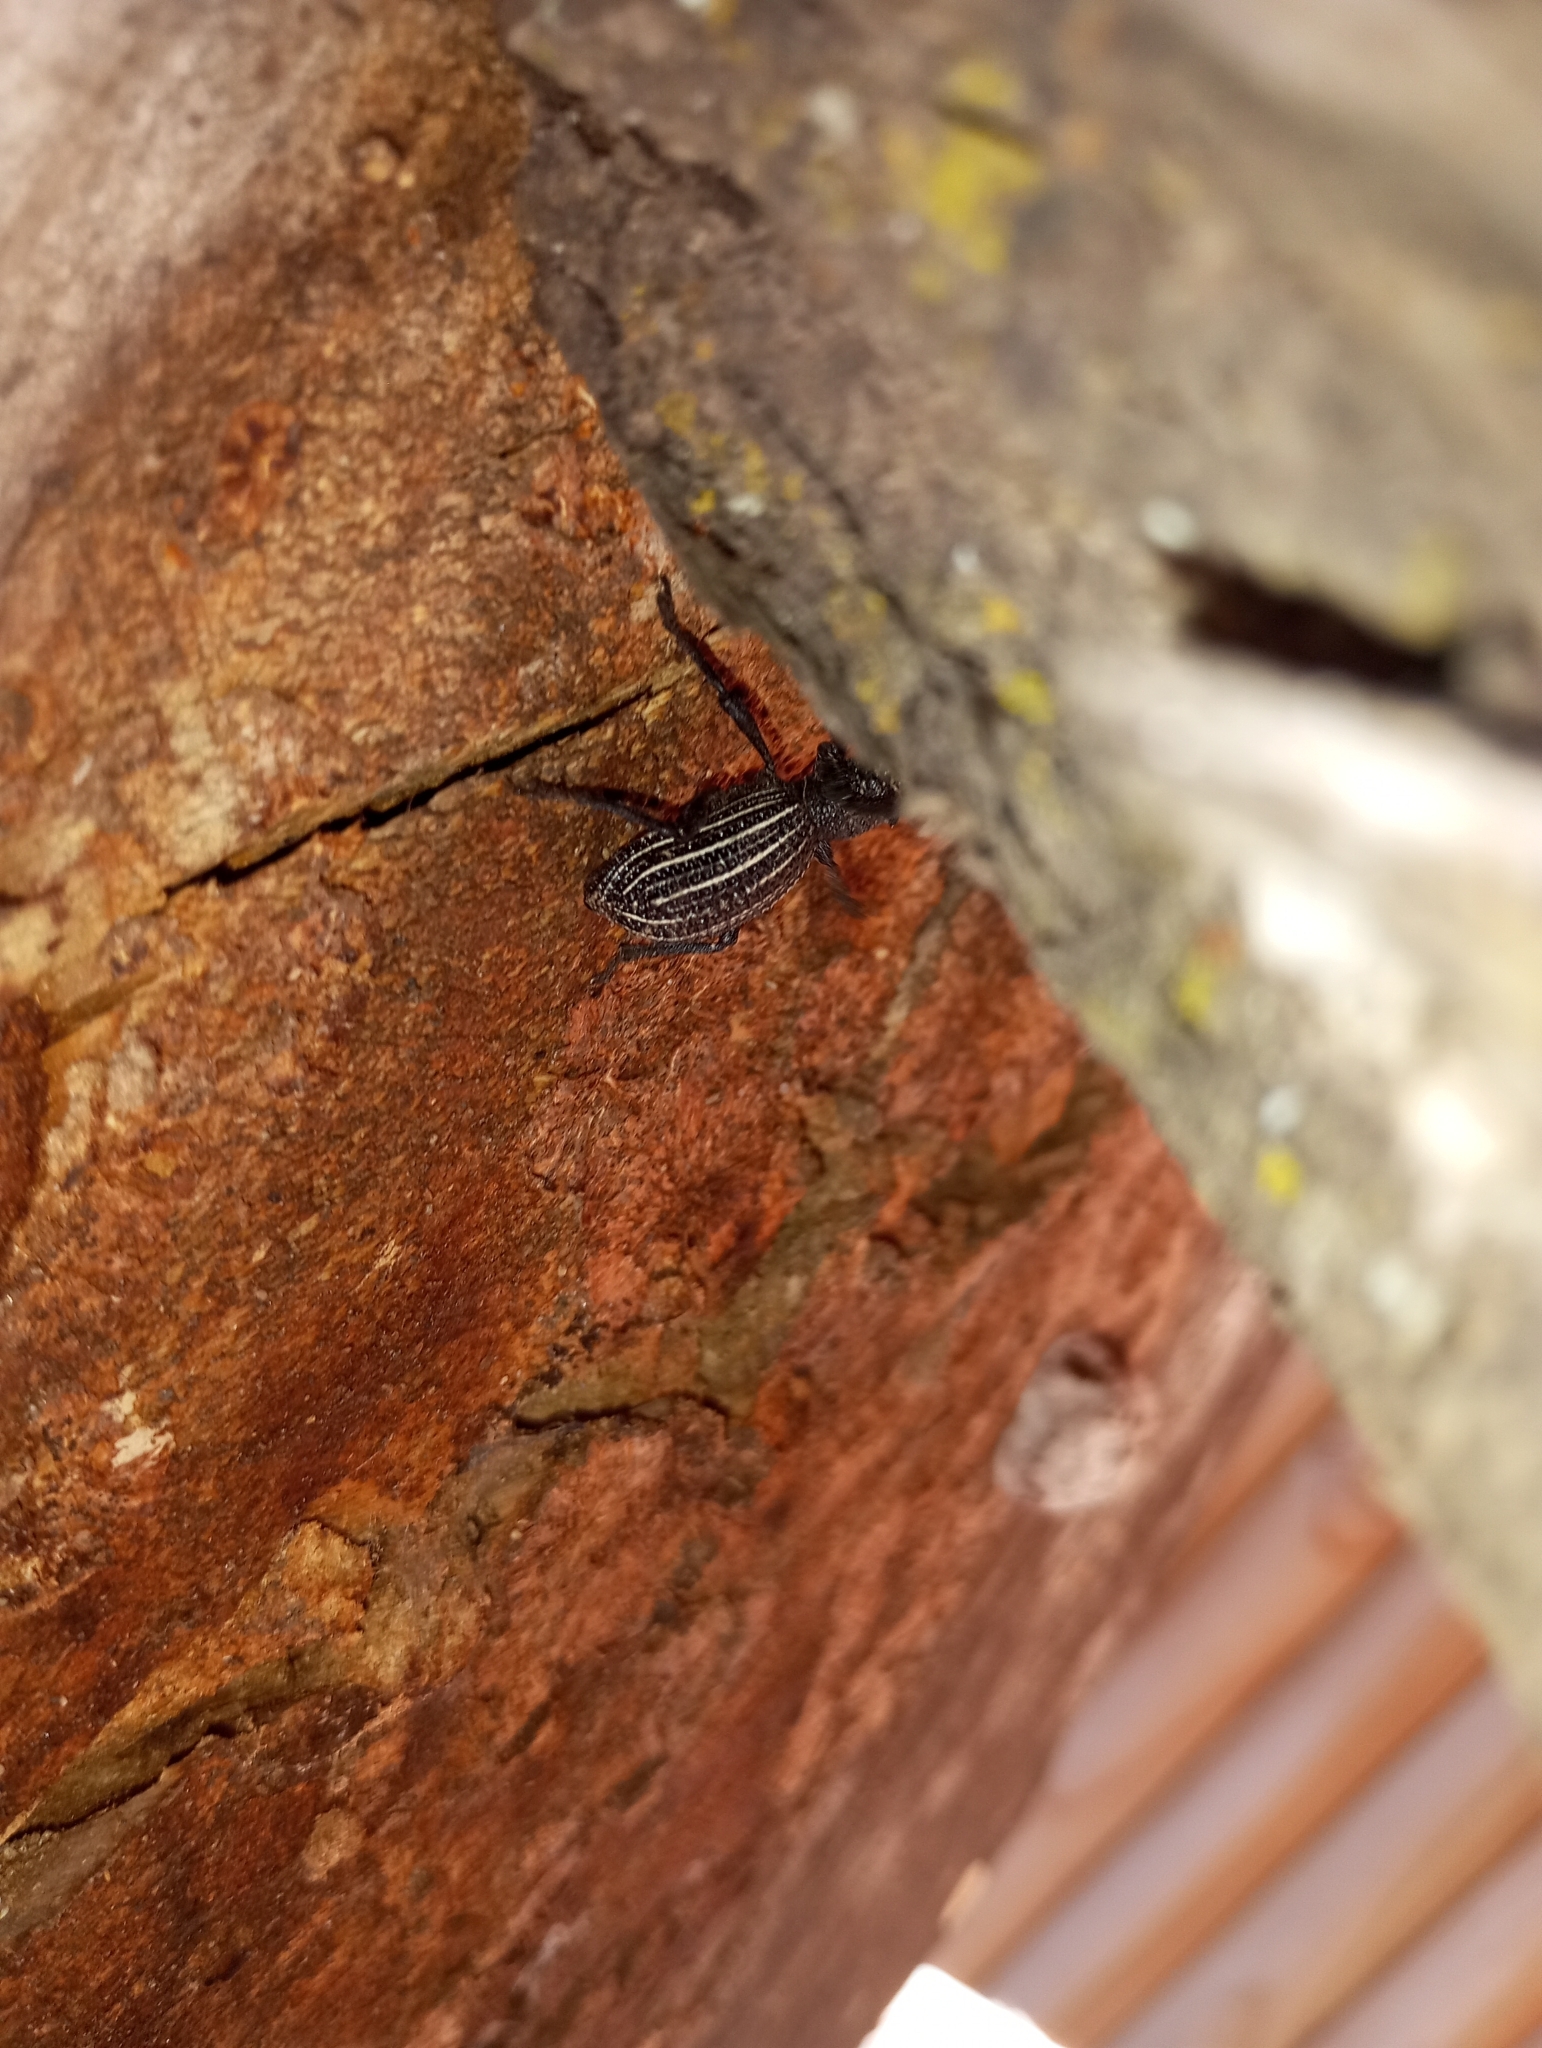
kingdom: Animalia
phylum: Arthropoda
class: Insecta
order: Coleoptera
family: Curculionidae
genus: Aegorhinus
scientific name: Aegorhinus
